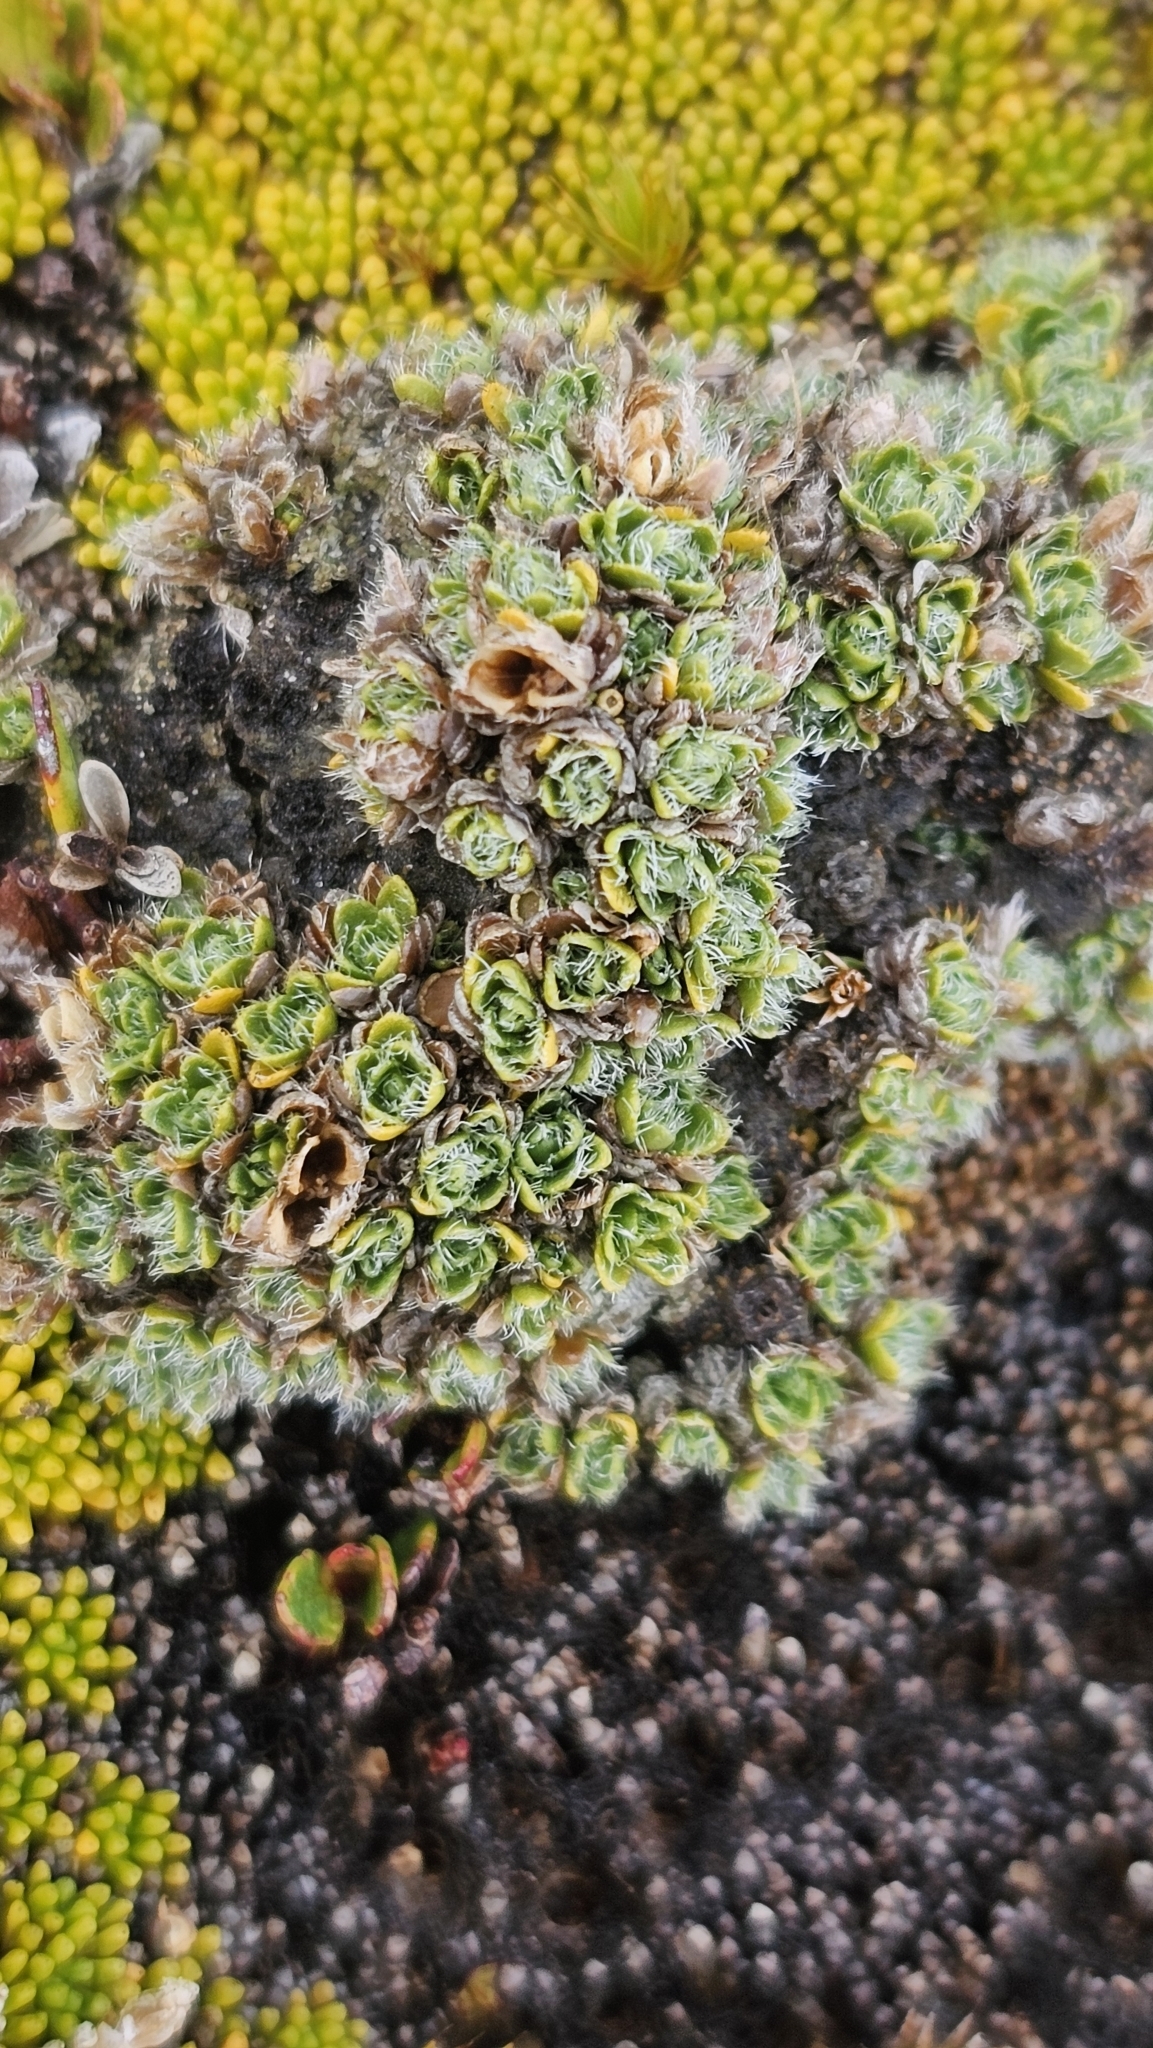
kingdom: Plantae
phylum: Tracheophyta
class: Magnoliopsida
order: Lamiales
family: Plantaginaceae
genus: Veronica
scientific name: Veronica pulvinaris
